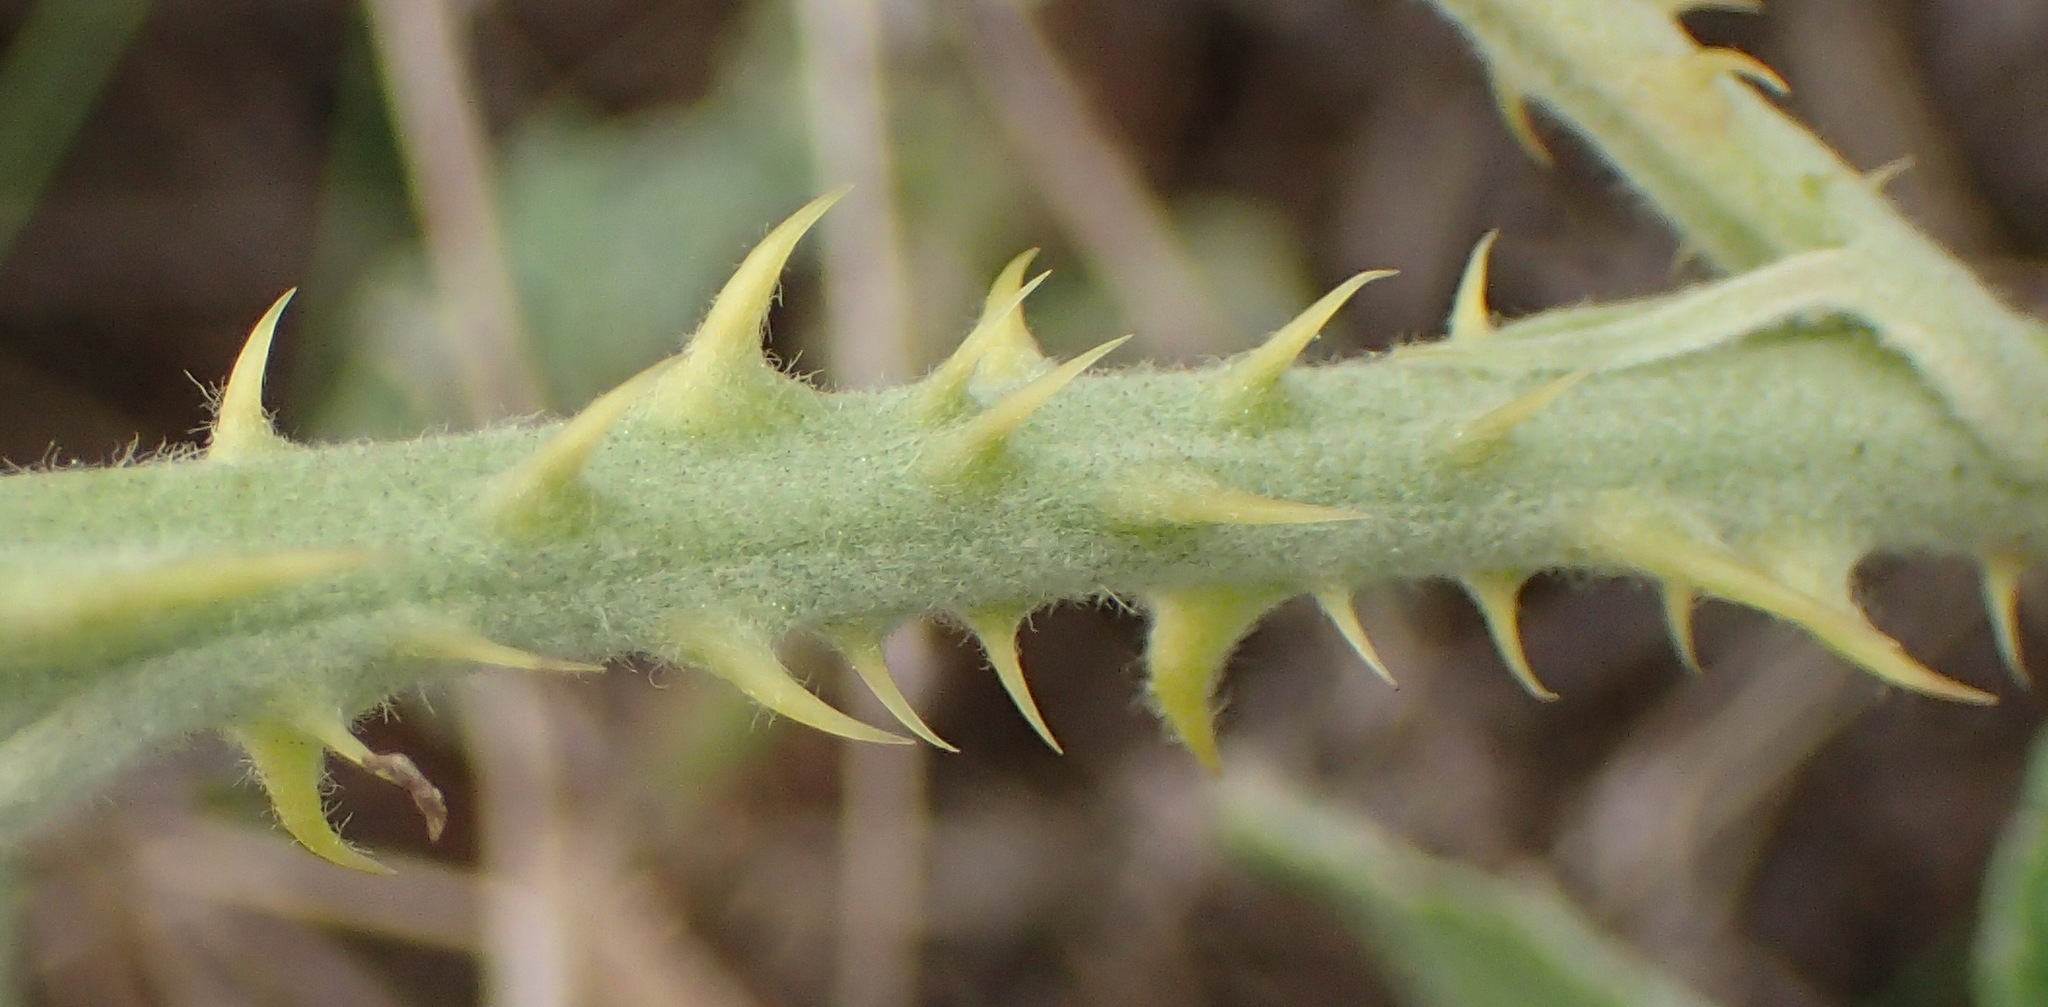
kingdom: Plantae
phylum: Tracheophyta
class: Magnoliopsida
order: Rosales
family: Rosaceae
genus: Rubus
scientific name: Rubus rigidus
